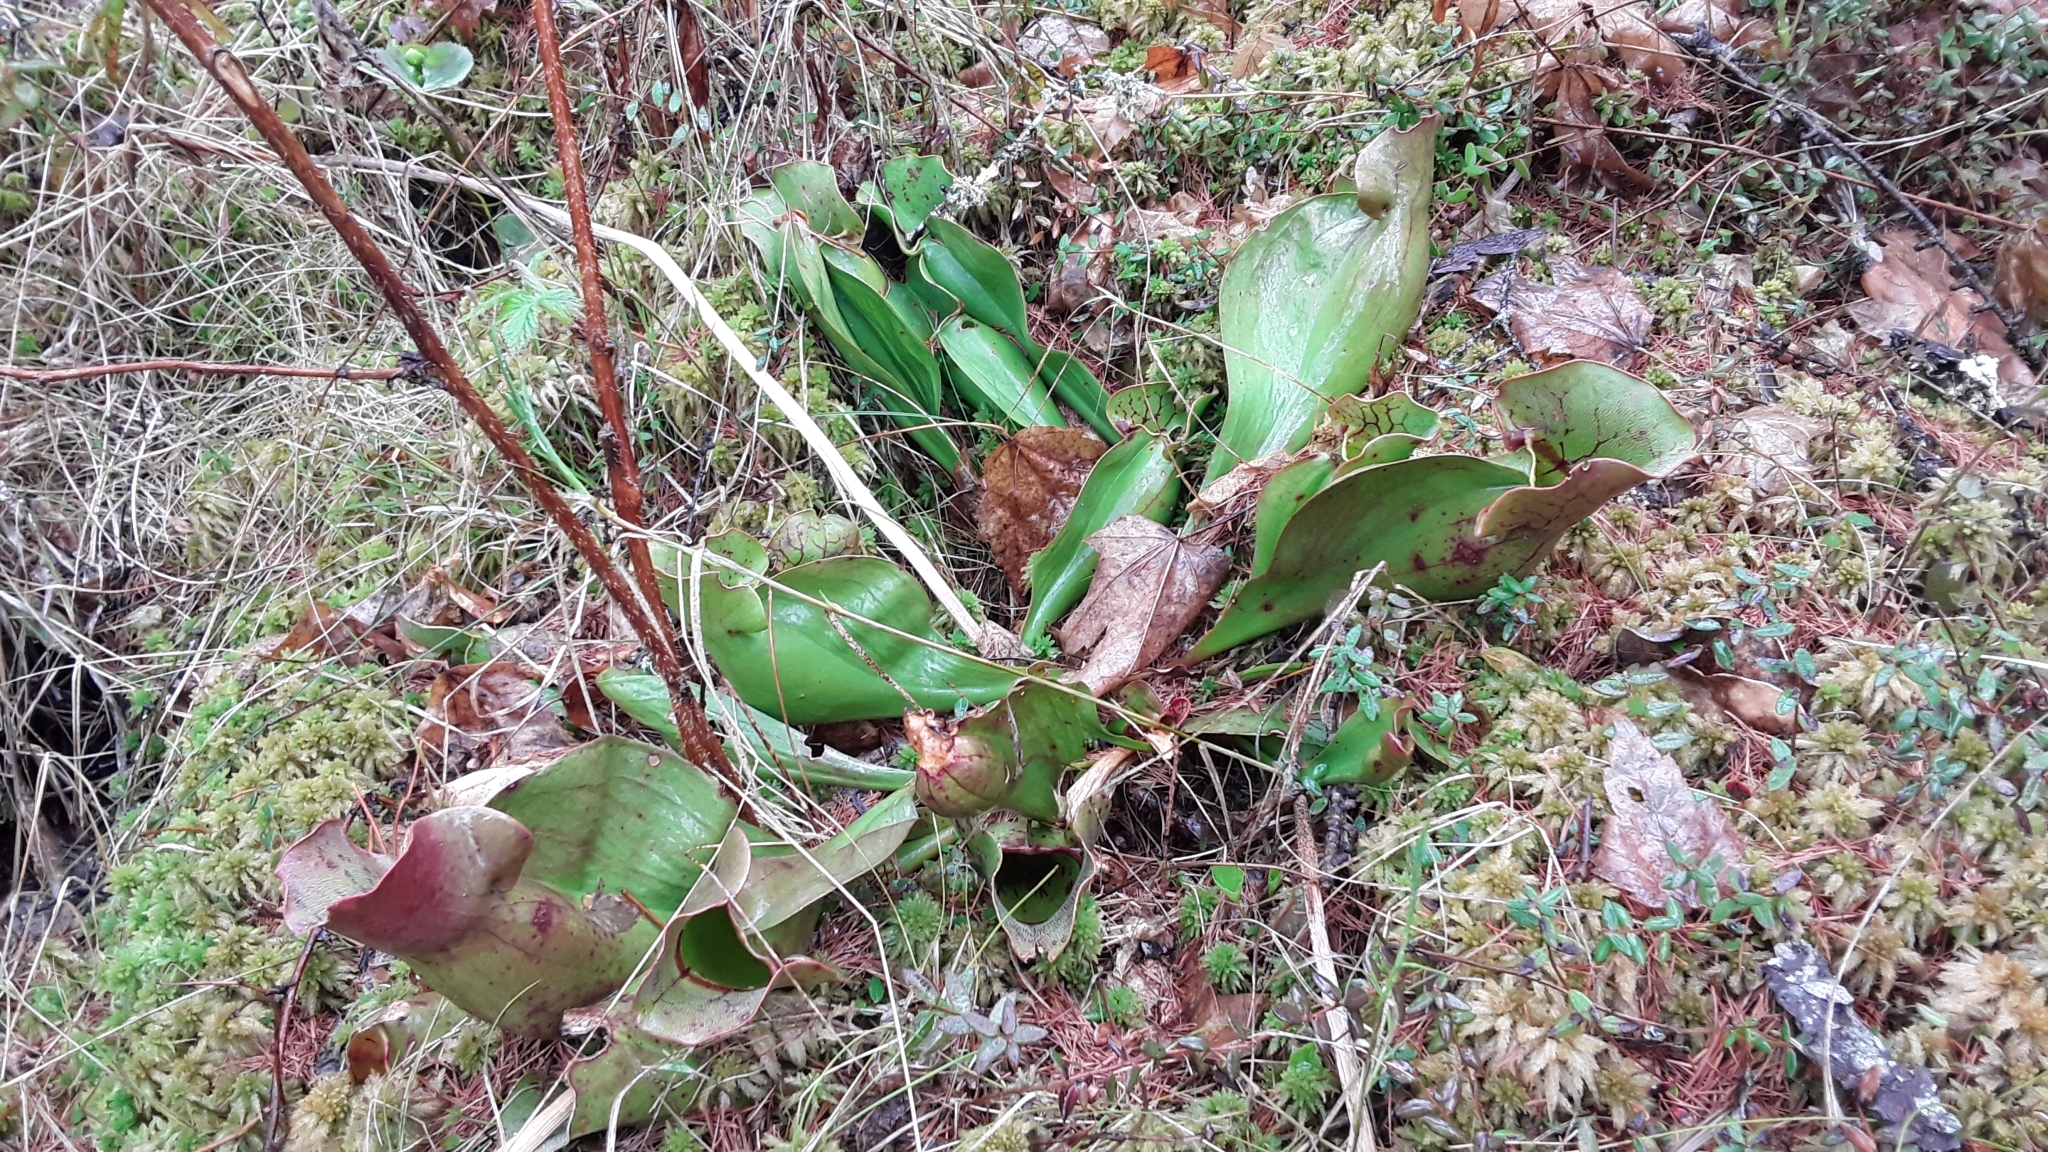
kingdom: Plantae
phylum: Tracheophyta
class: Magnoliopsida
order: Ericales
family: Sarraceniaceae
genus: Sarracenia
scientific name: Sarracenia purpurea
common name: Pitcherplant
